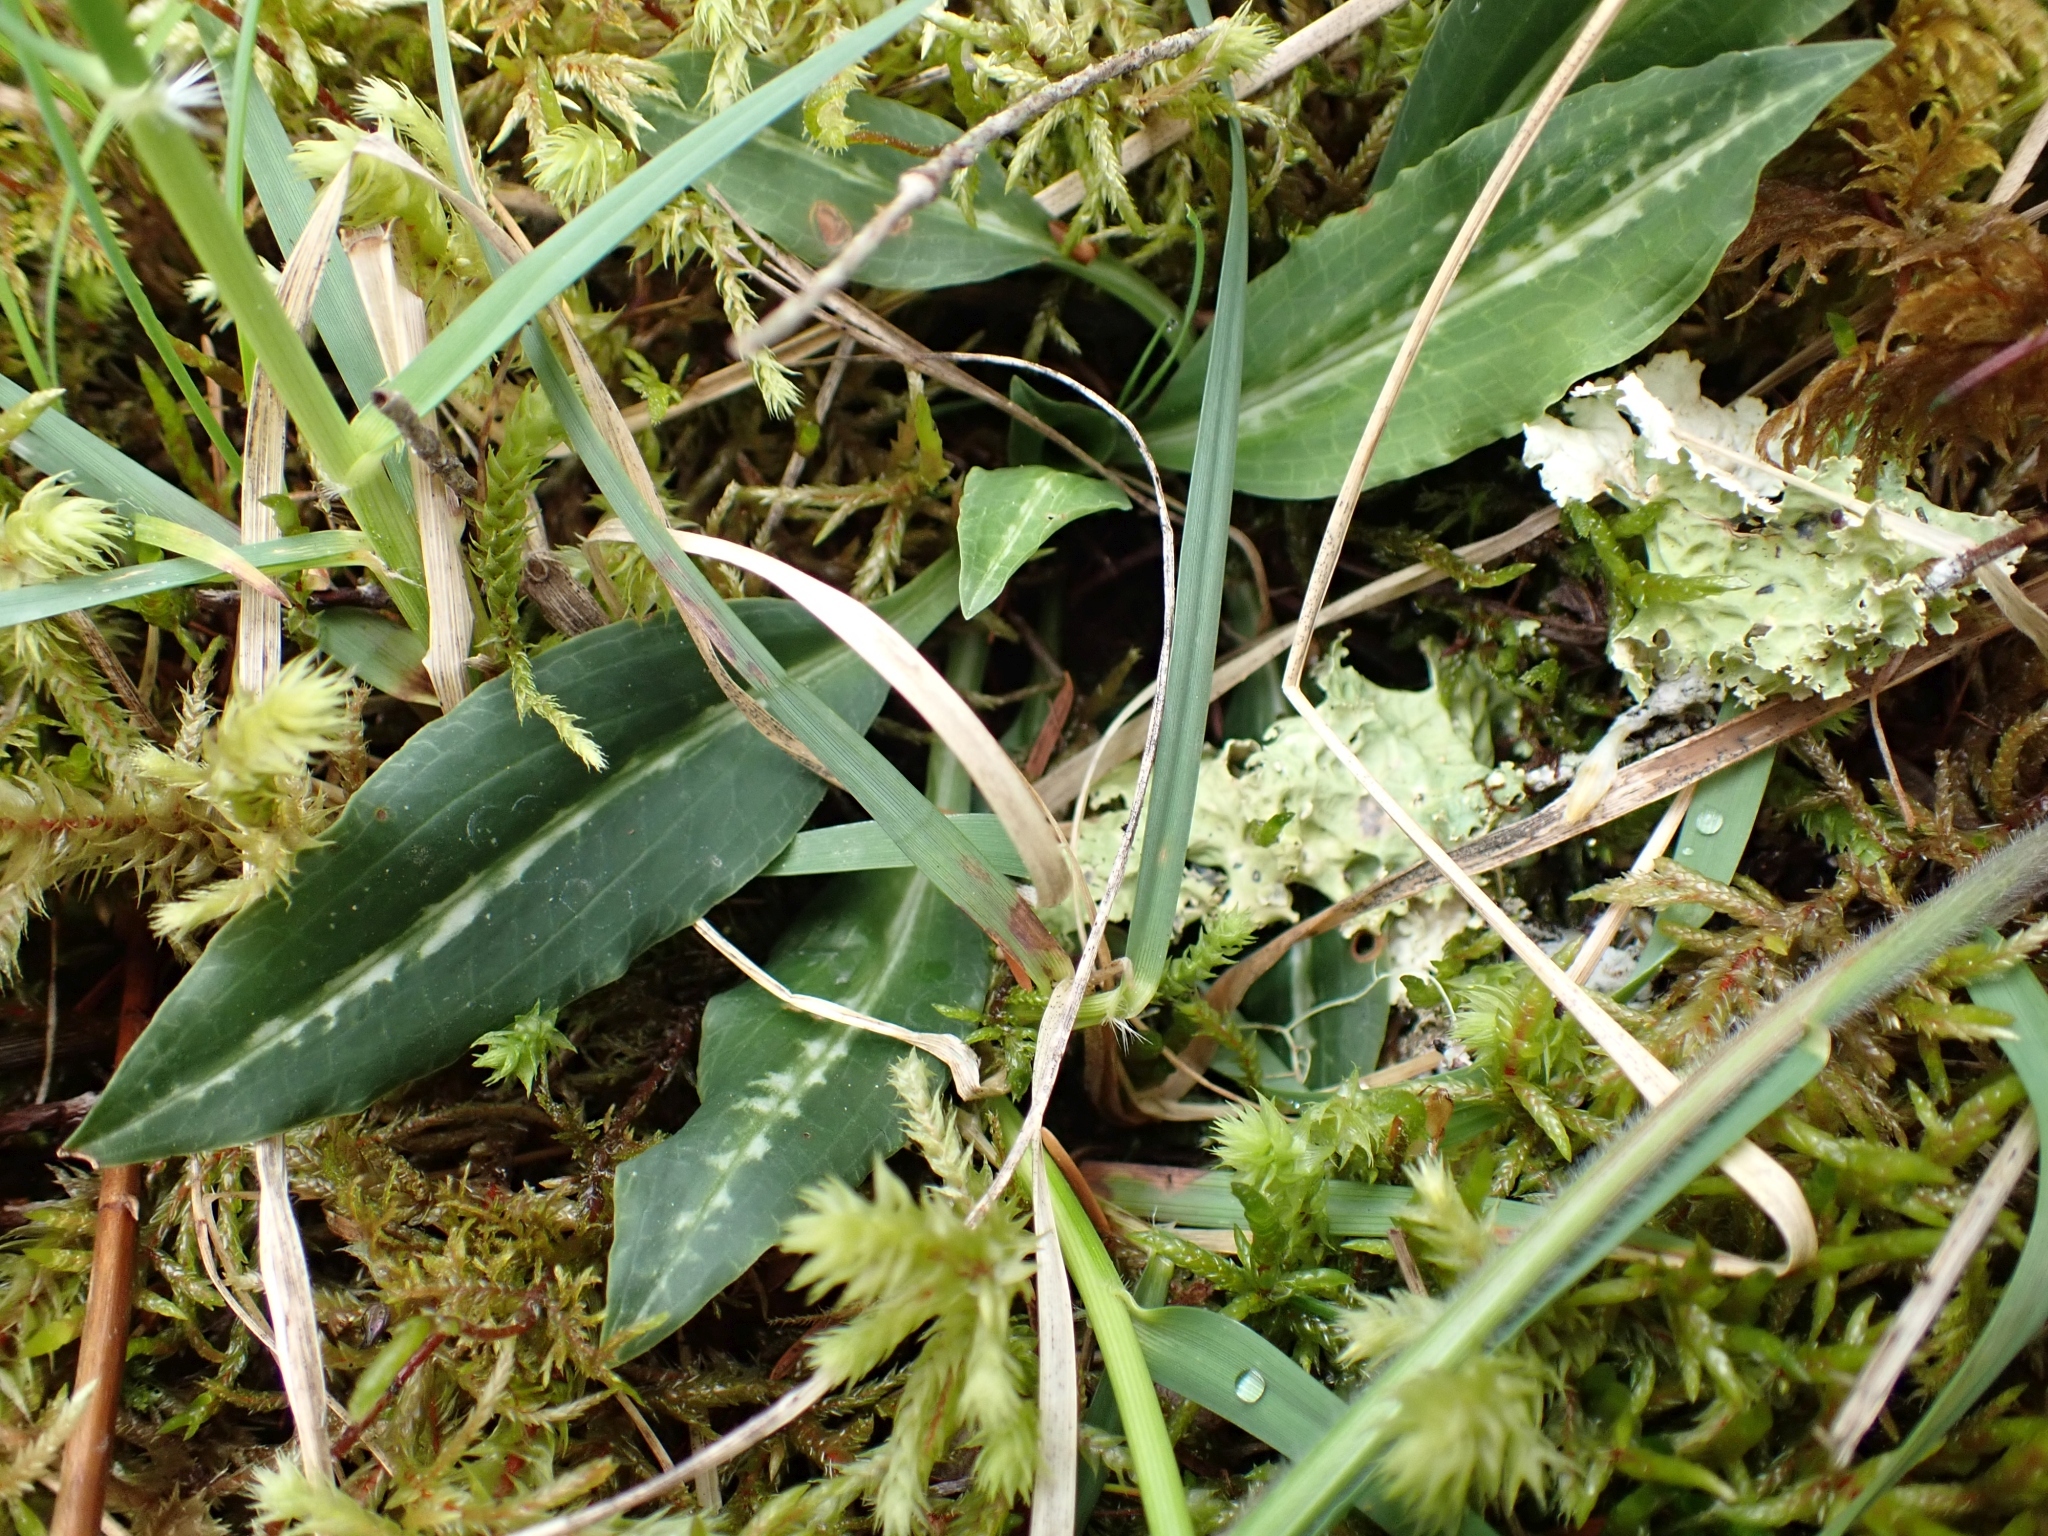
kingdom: Plantae
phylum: Tracheophyta
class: Liliopsida
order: Asparagales
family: Orchidaceae
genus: Goodyera
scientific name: Goodyera oblongifolia
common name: Giant rattlesnake-plantain
